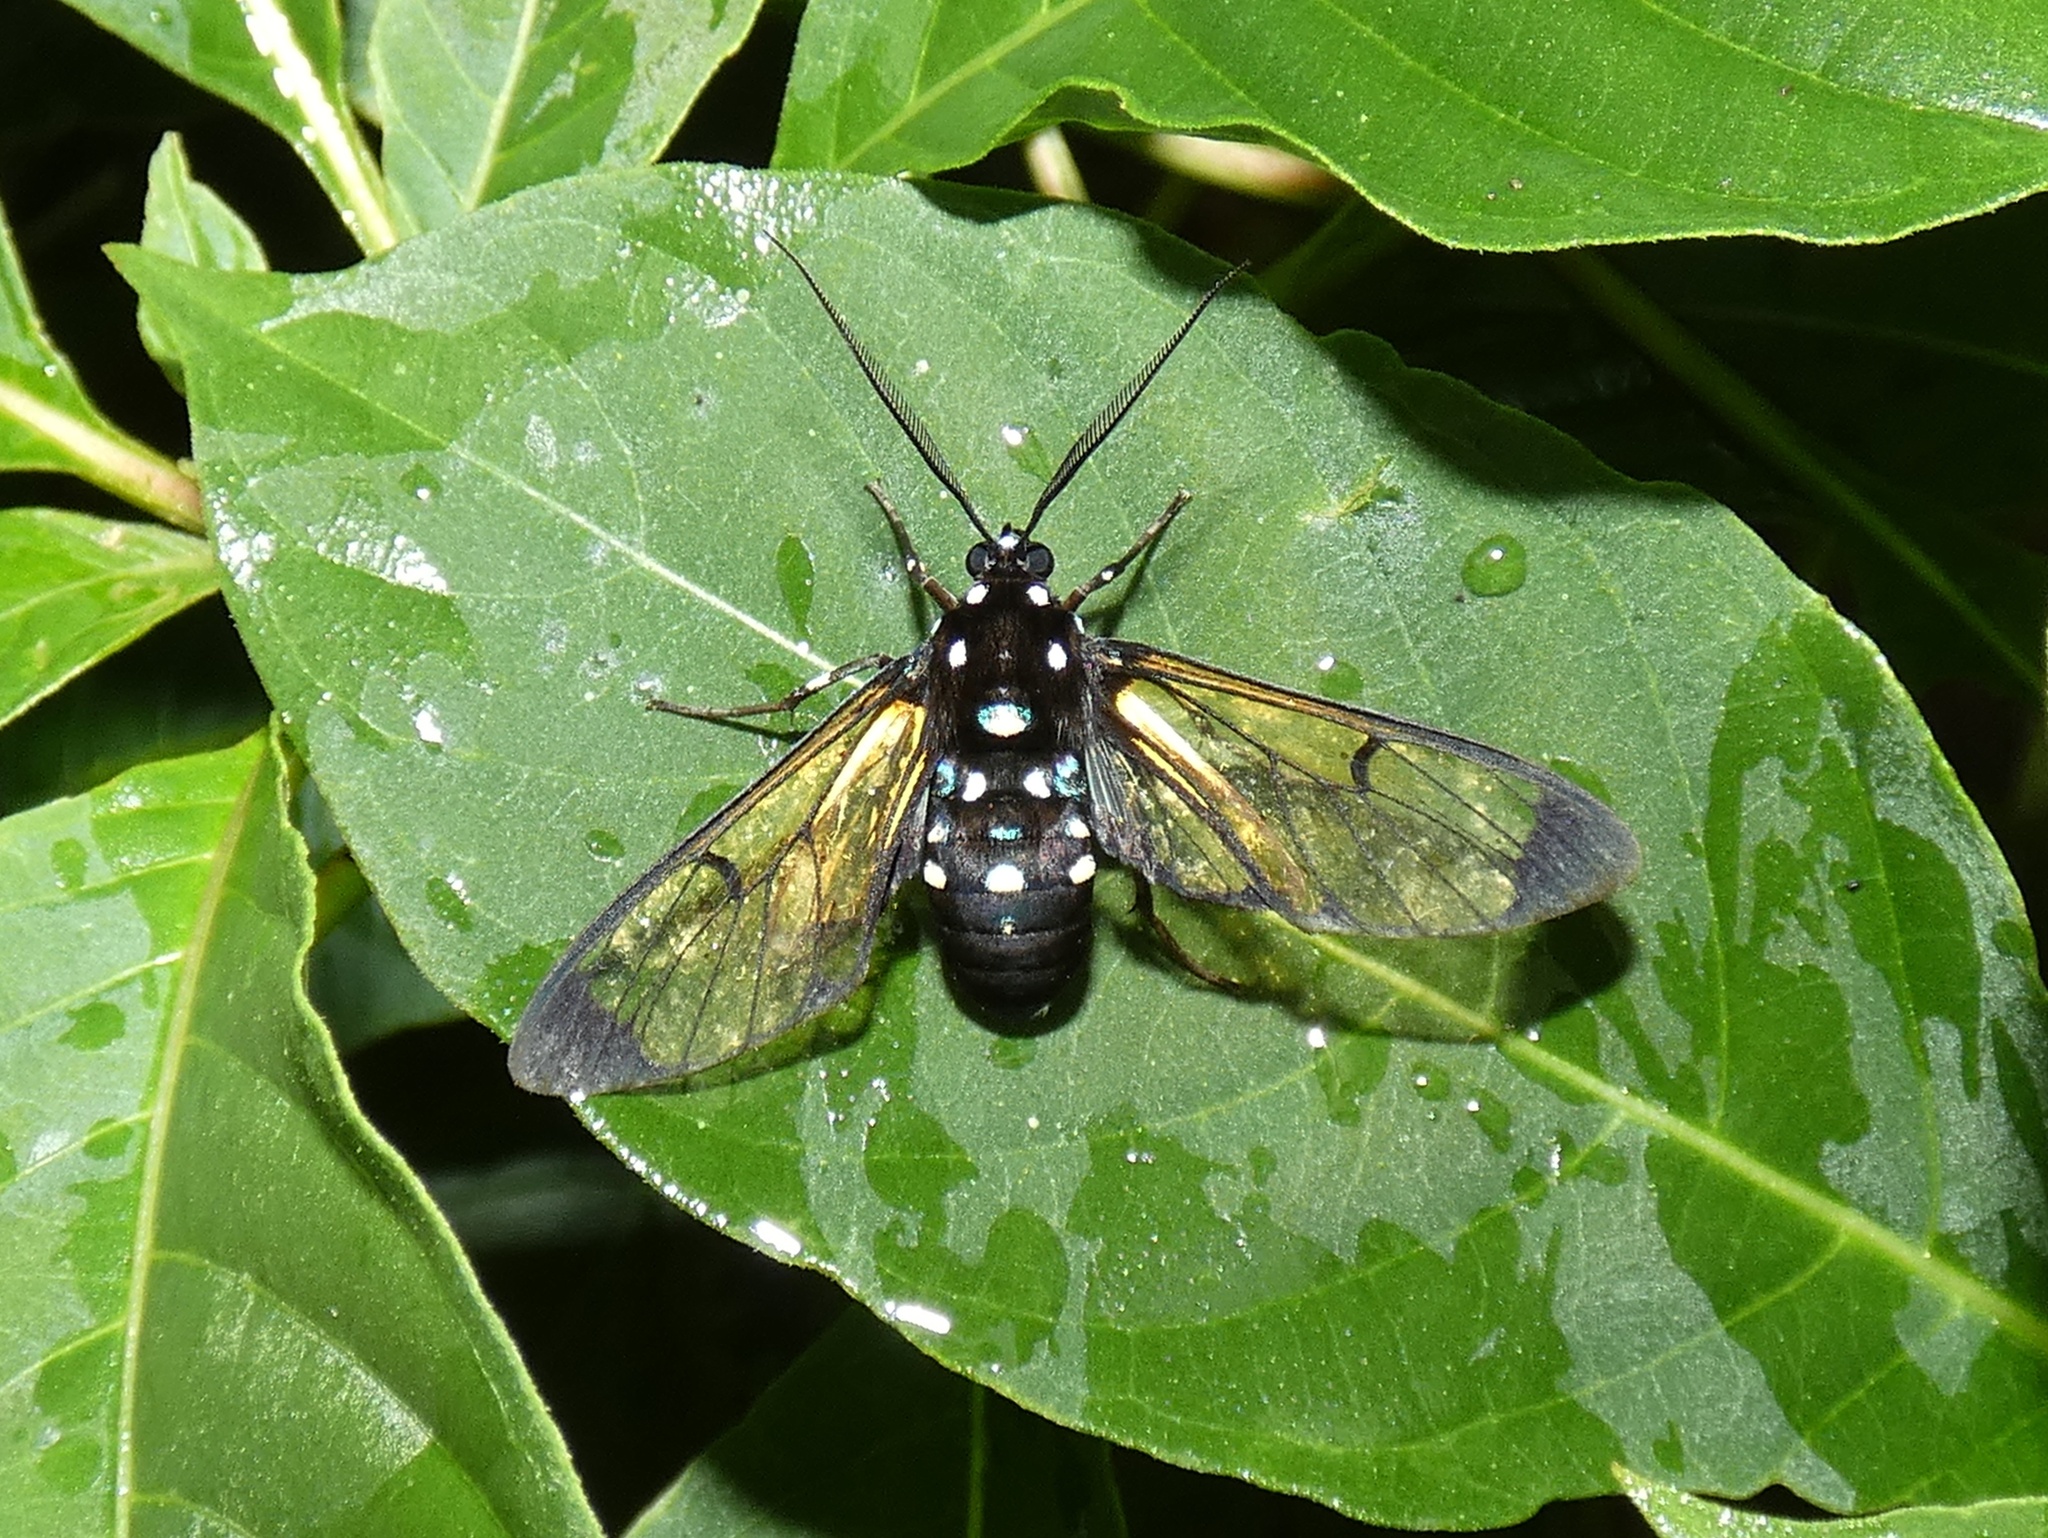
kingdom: Animalia
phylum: Arthropoda
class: Insecta
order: Lepidoptera
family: Erebidae
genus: Homoeocera
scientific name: Homoeocera stictosoma
